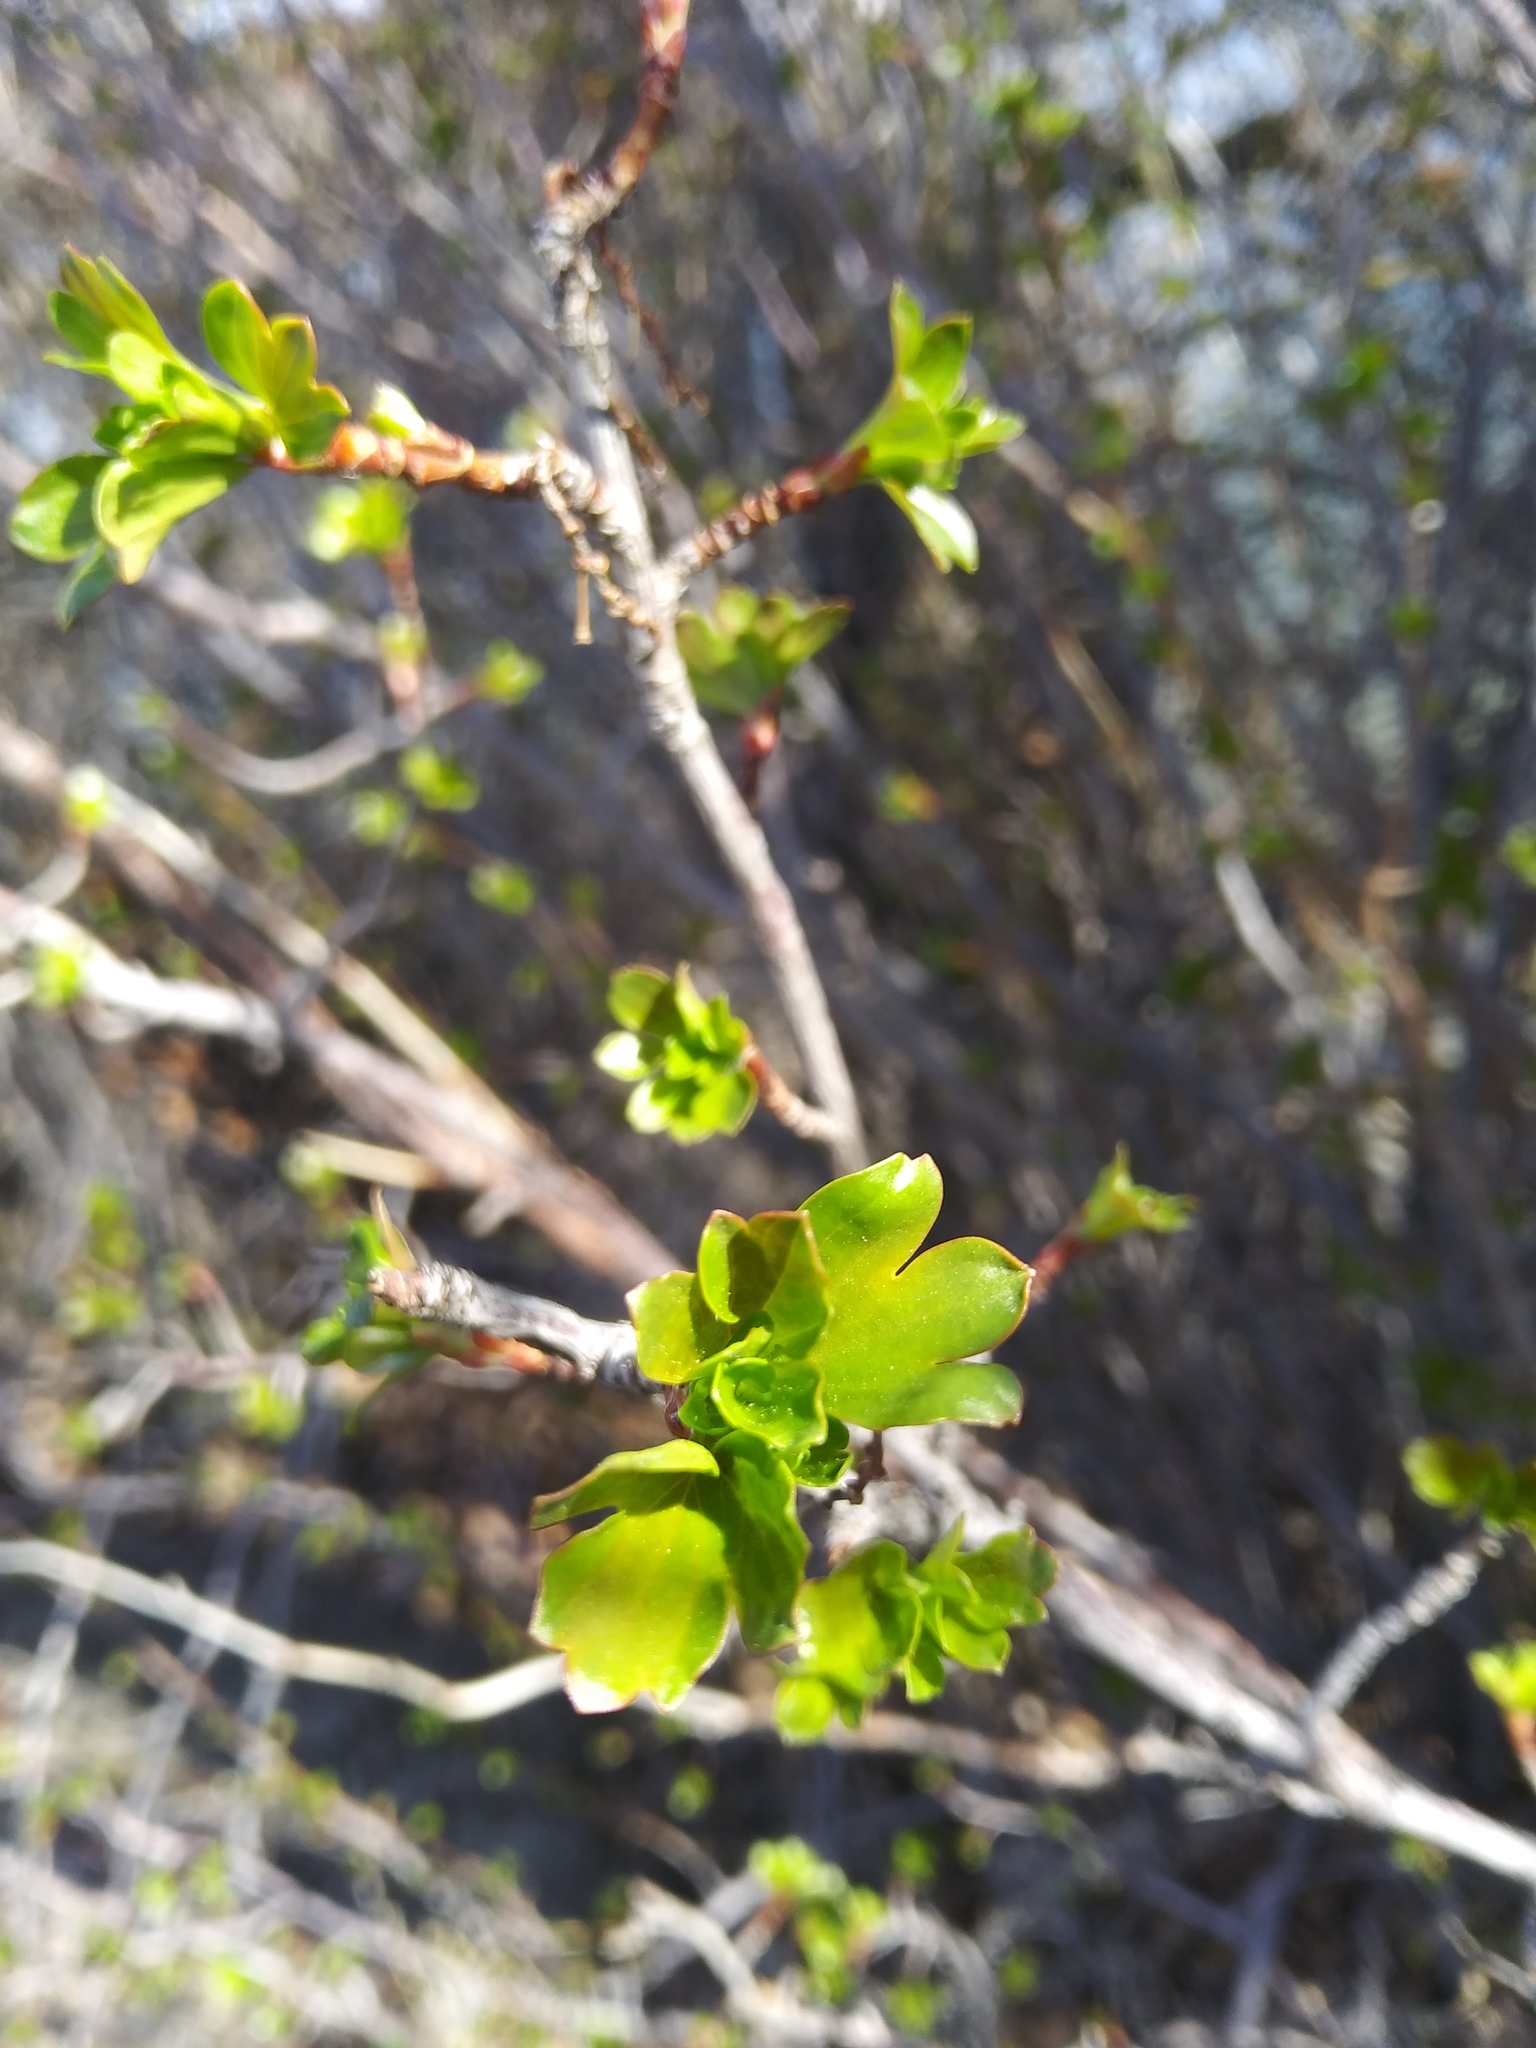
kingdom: Plantae
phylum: Tracheophyta
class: Magnoliopsida
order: Saxifragales
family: Grossulariaceae
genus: Ribes
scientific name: Ribes aureum
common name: Golden currant
